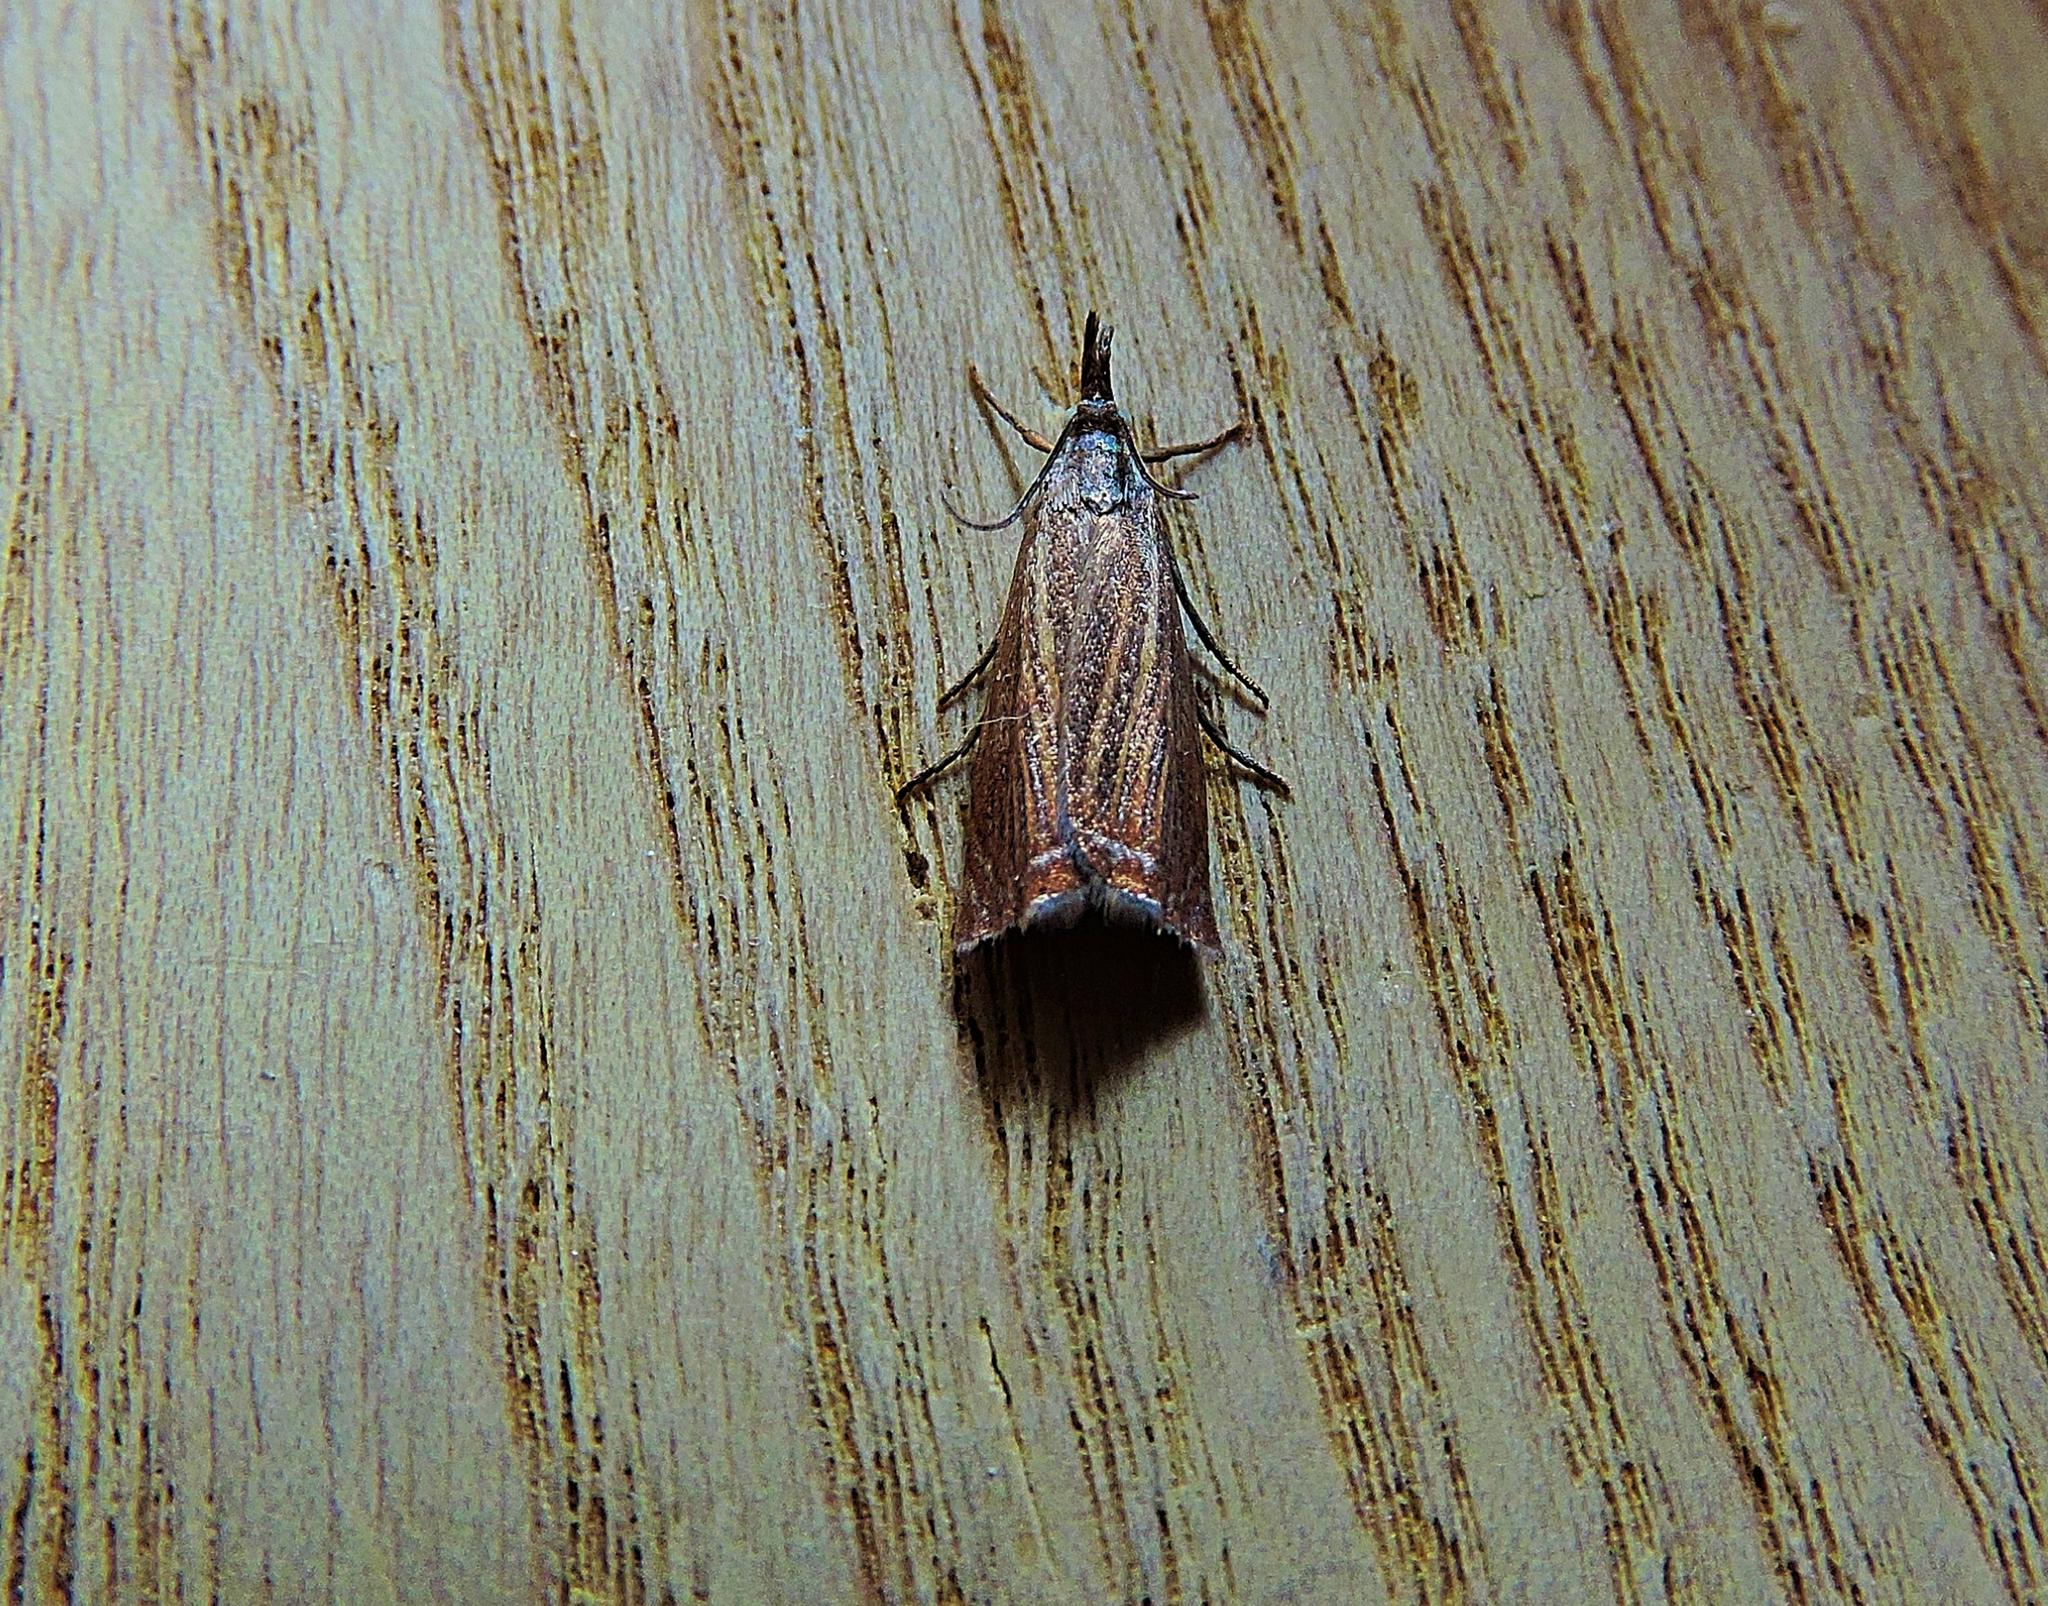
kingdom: Animalia
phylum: Arthropoda
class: Insecta
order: Lepidoptera
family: Crambidae
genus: Chrysoteuchia
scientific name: Chrysoteuchia culmella
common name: Garden grass-veneer
